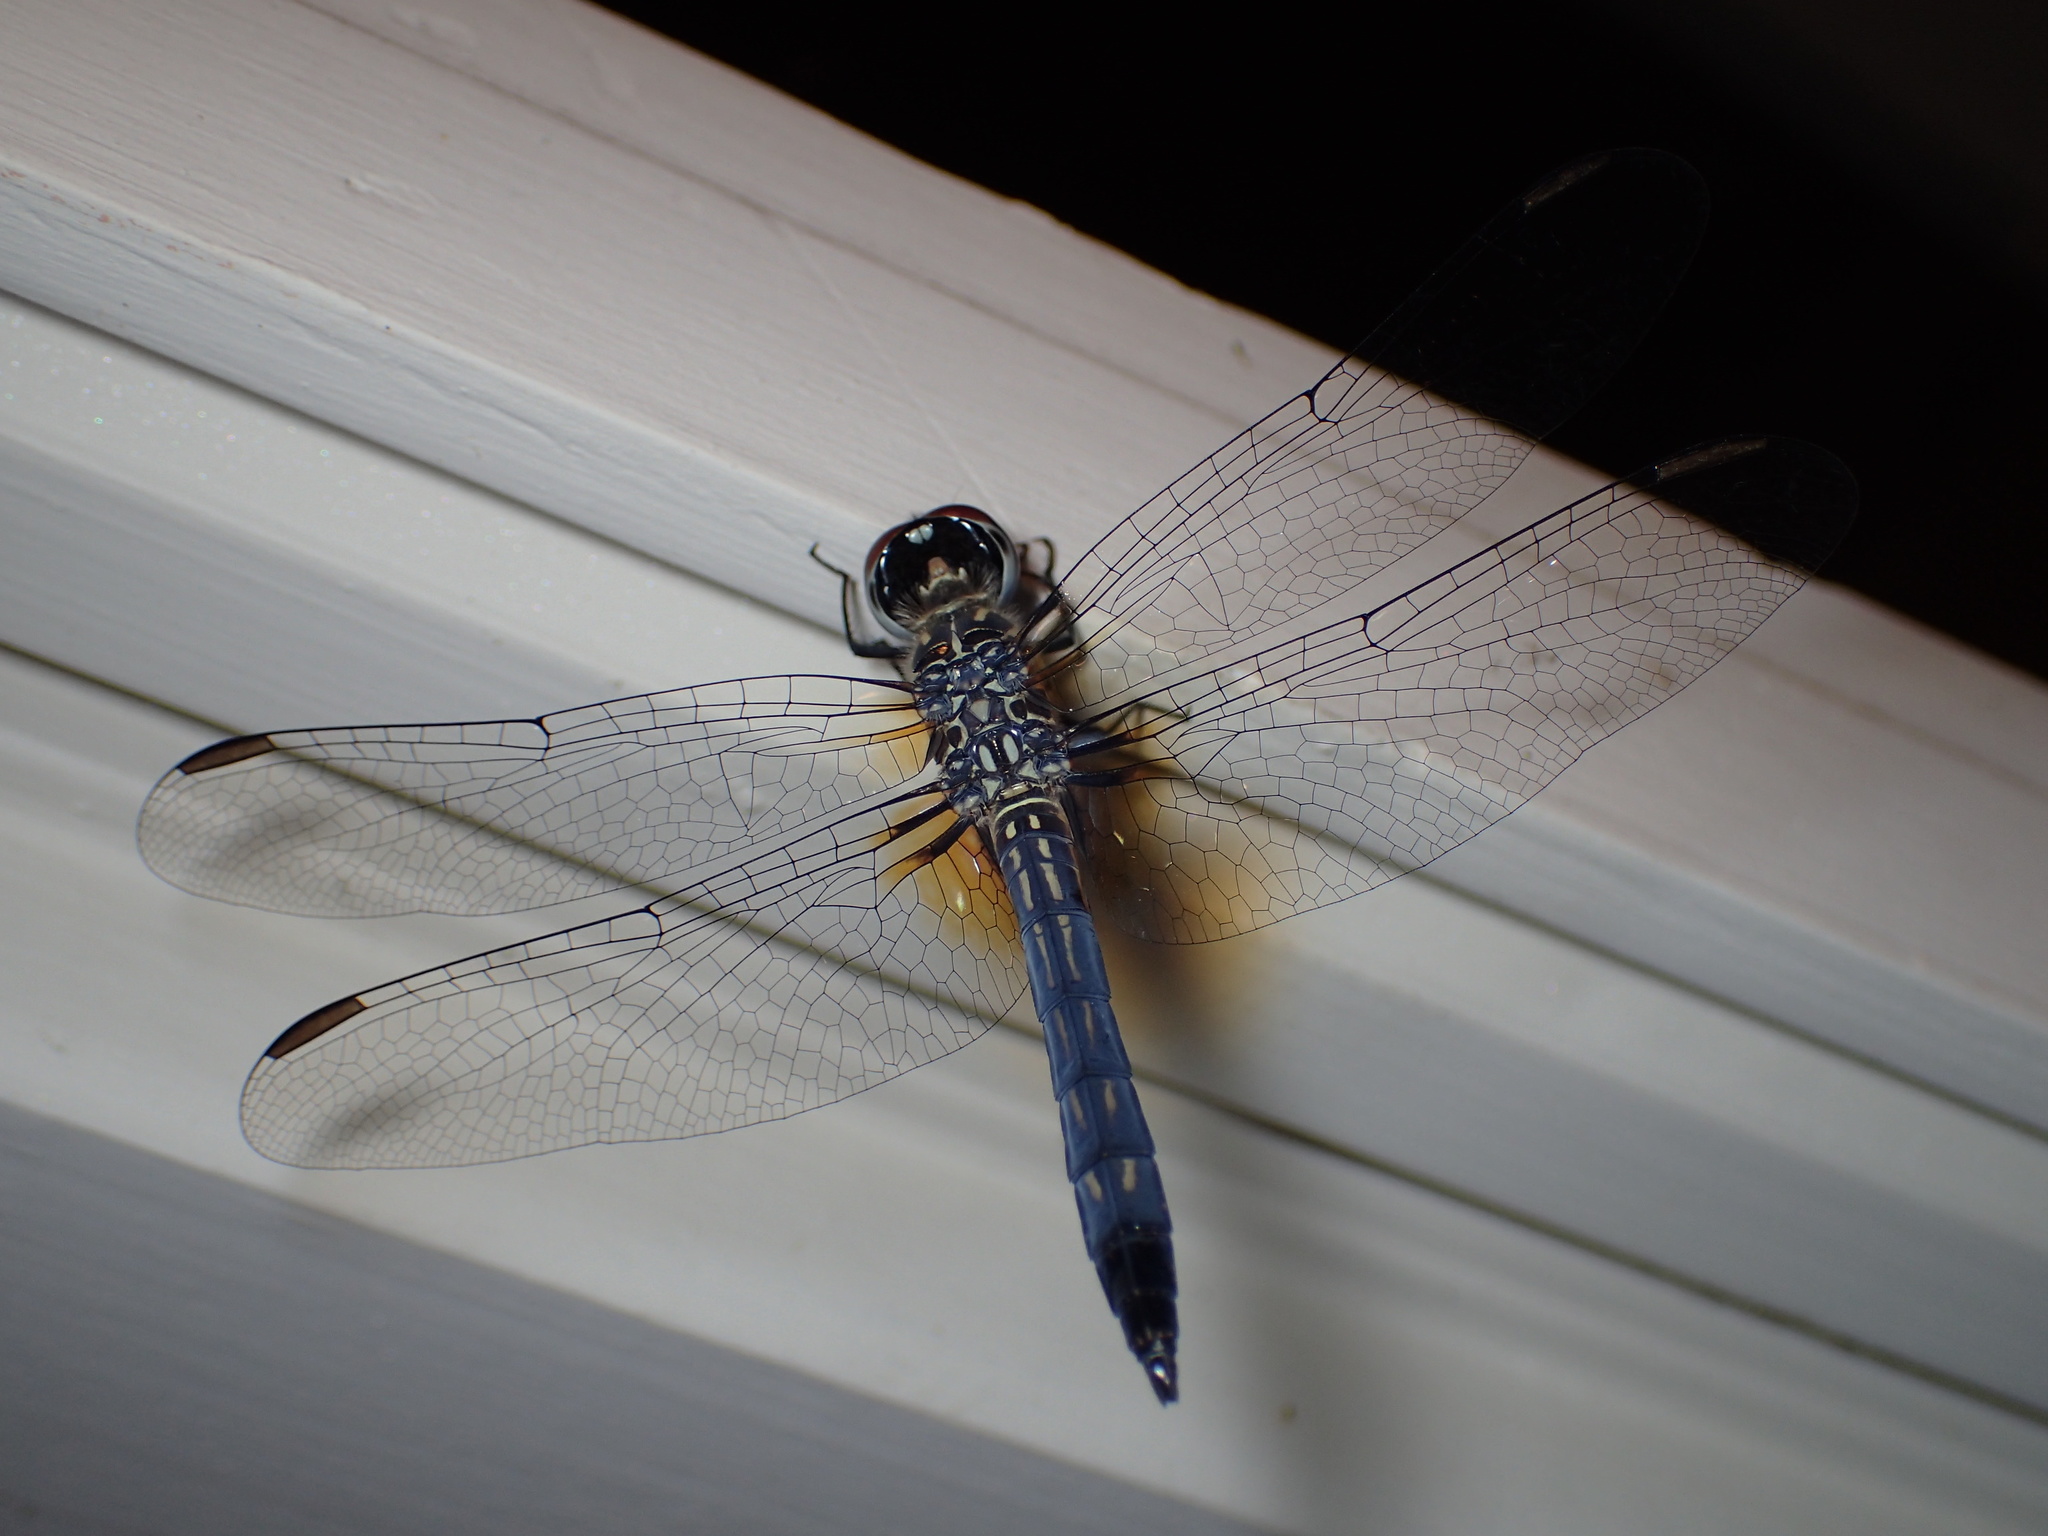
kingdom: Animalia
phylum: Arthropoda
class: Insecta
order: Odonata
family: Libellulidae
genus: Pachydiplax
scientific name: Pachydiplax longipennis
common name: Blue dasher
